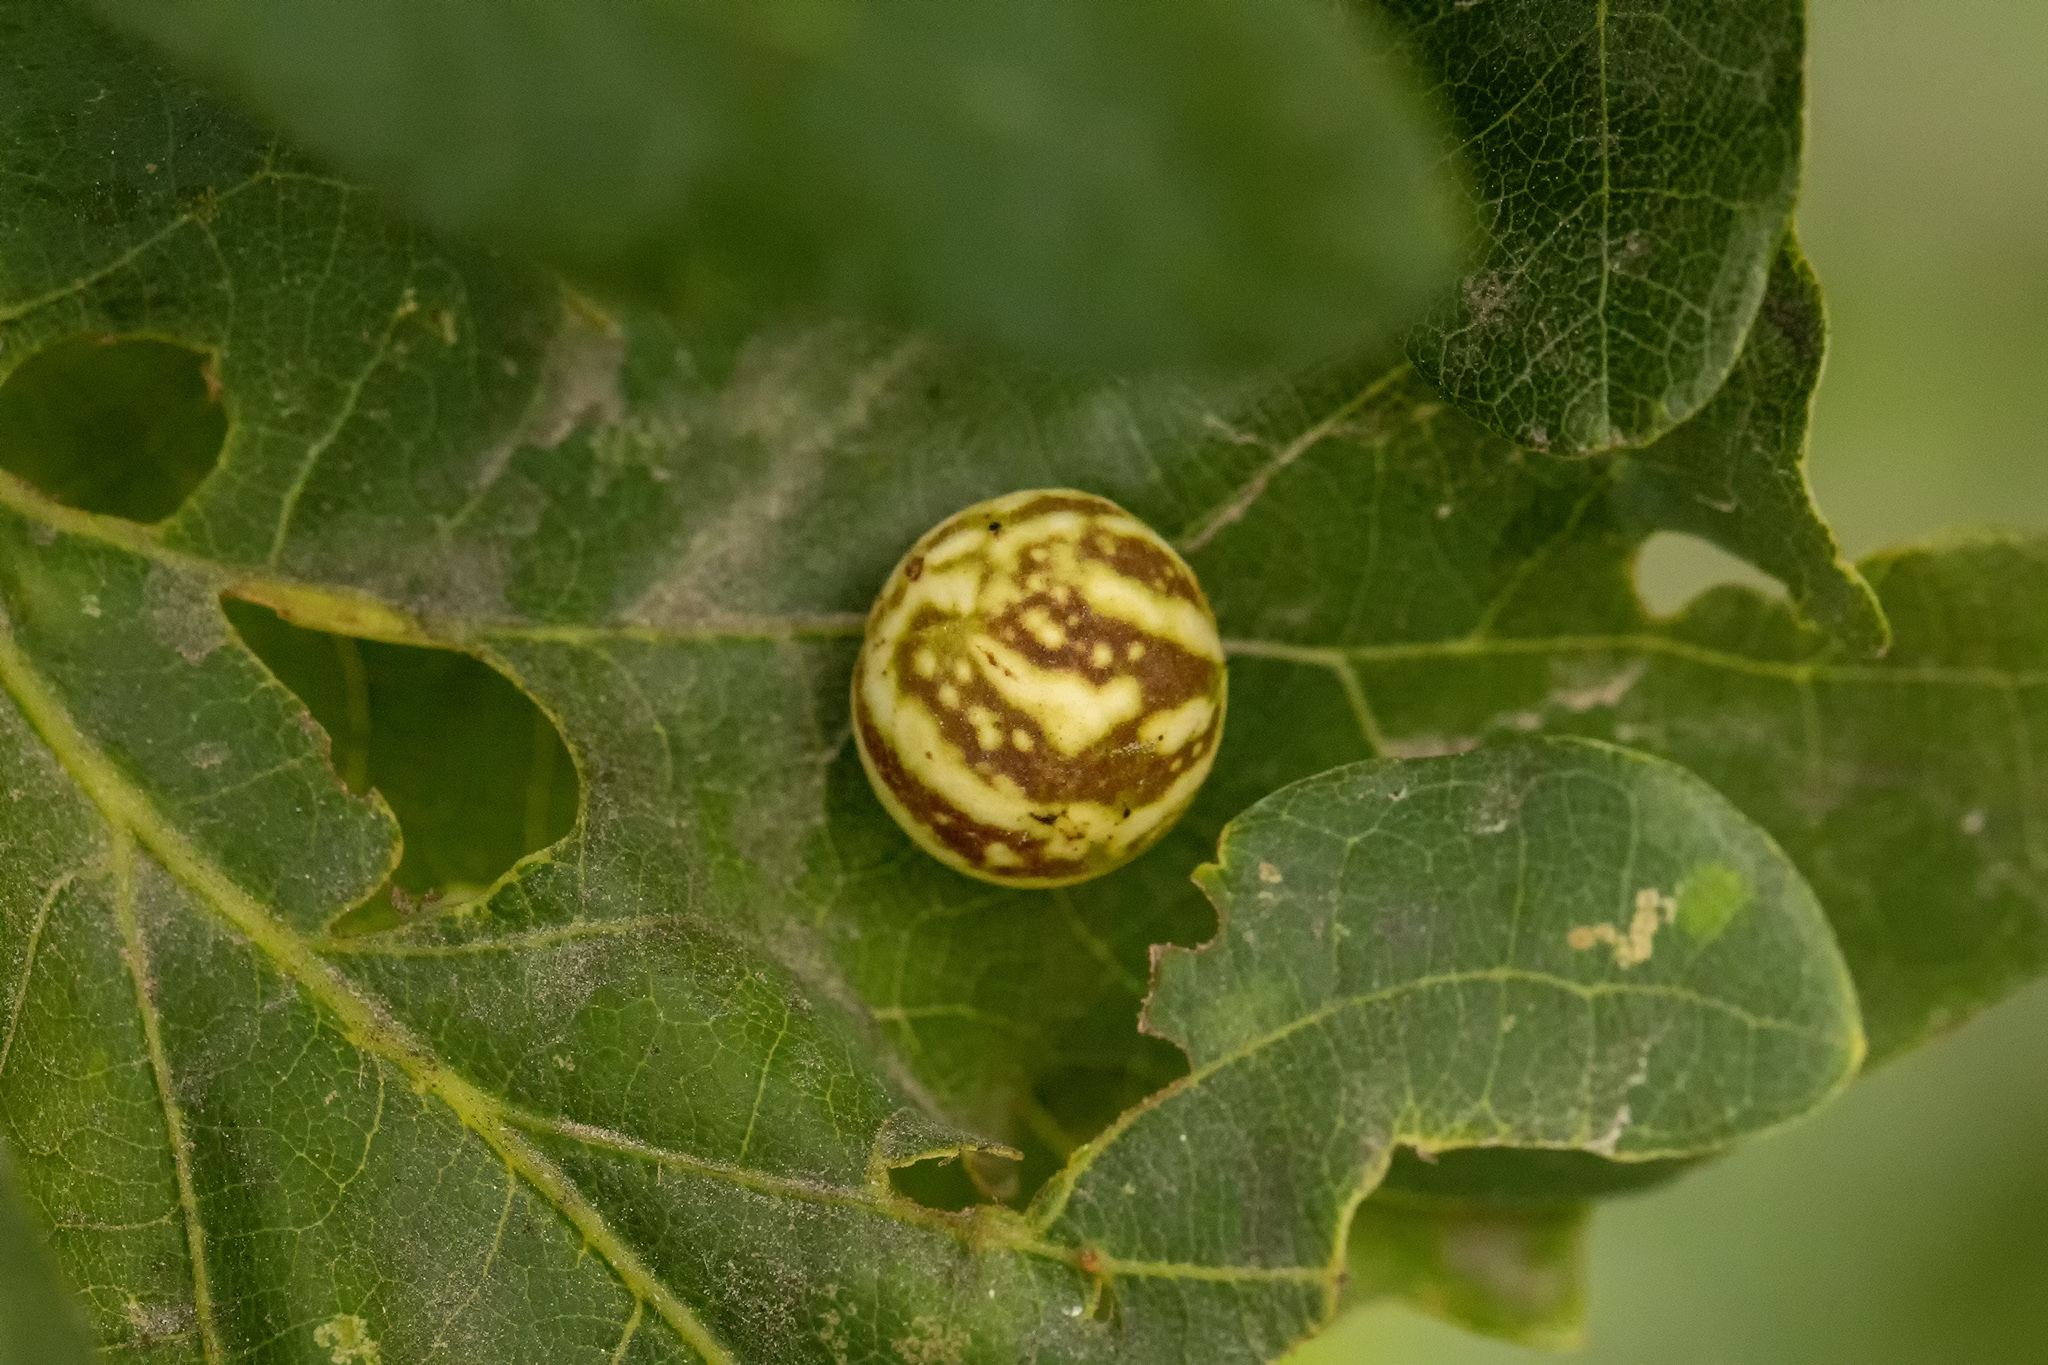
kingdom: Animalia
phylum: Arthropoda
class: Insecta
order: Hymenoptera
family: Cynipidae
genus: Cynips
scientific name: Cynips longiventris
